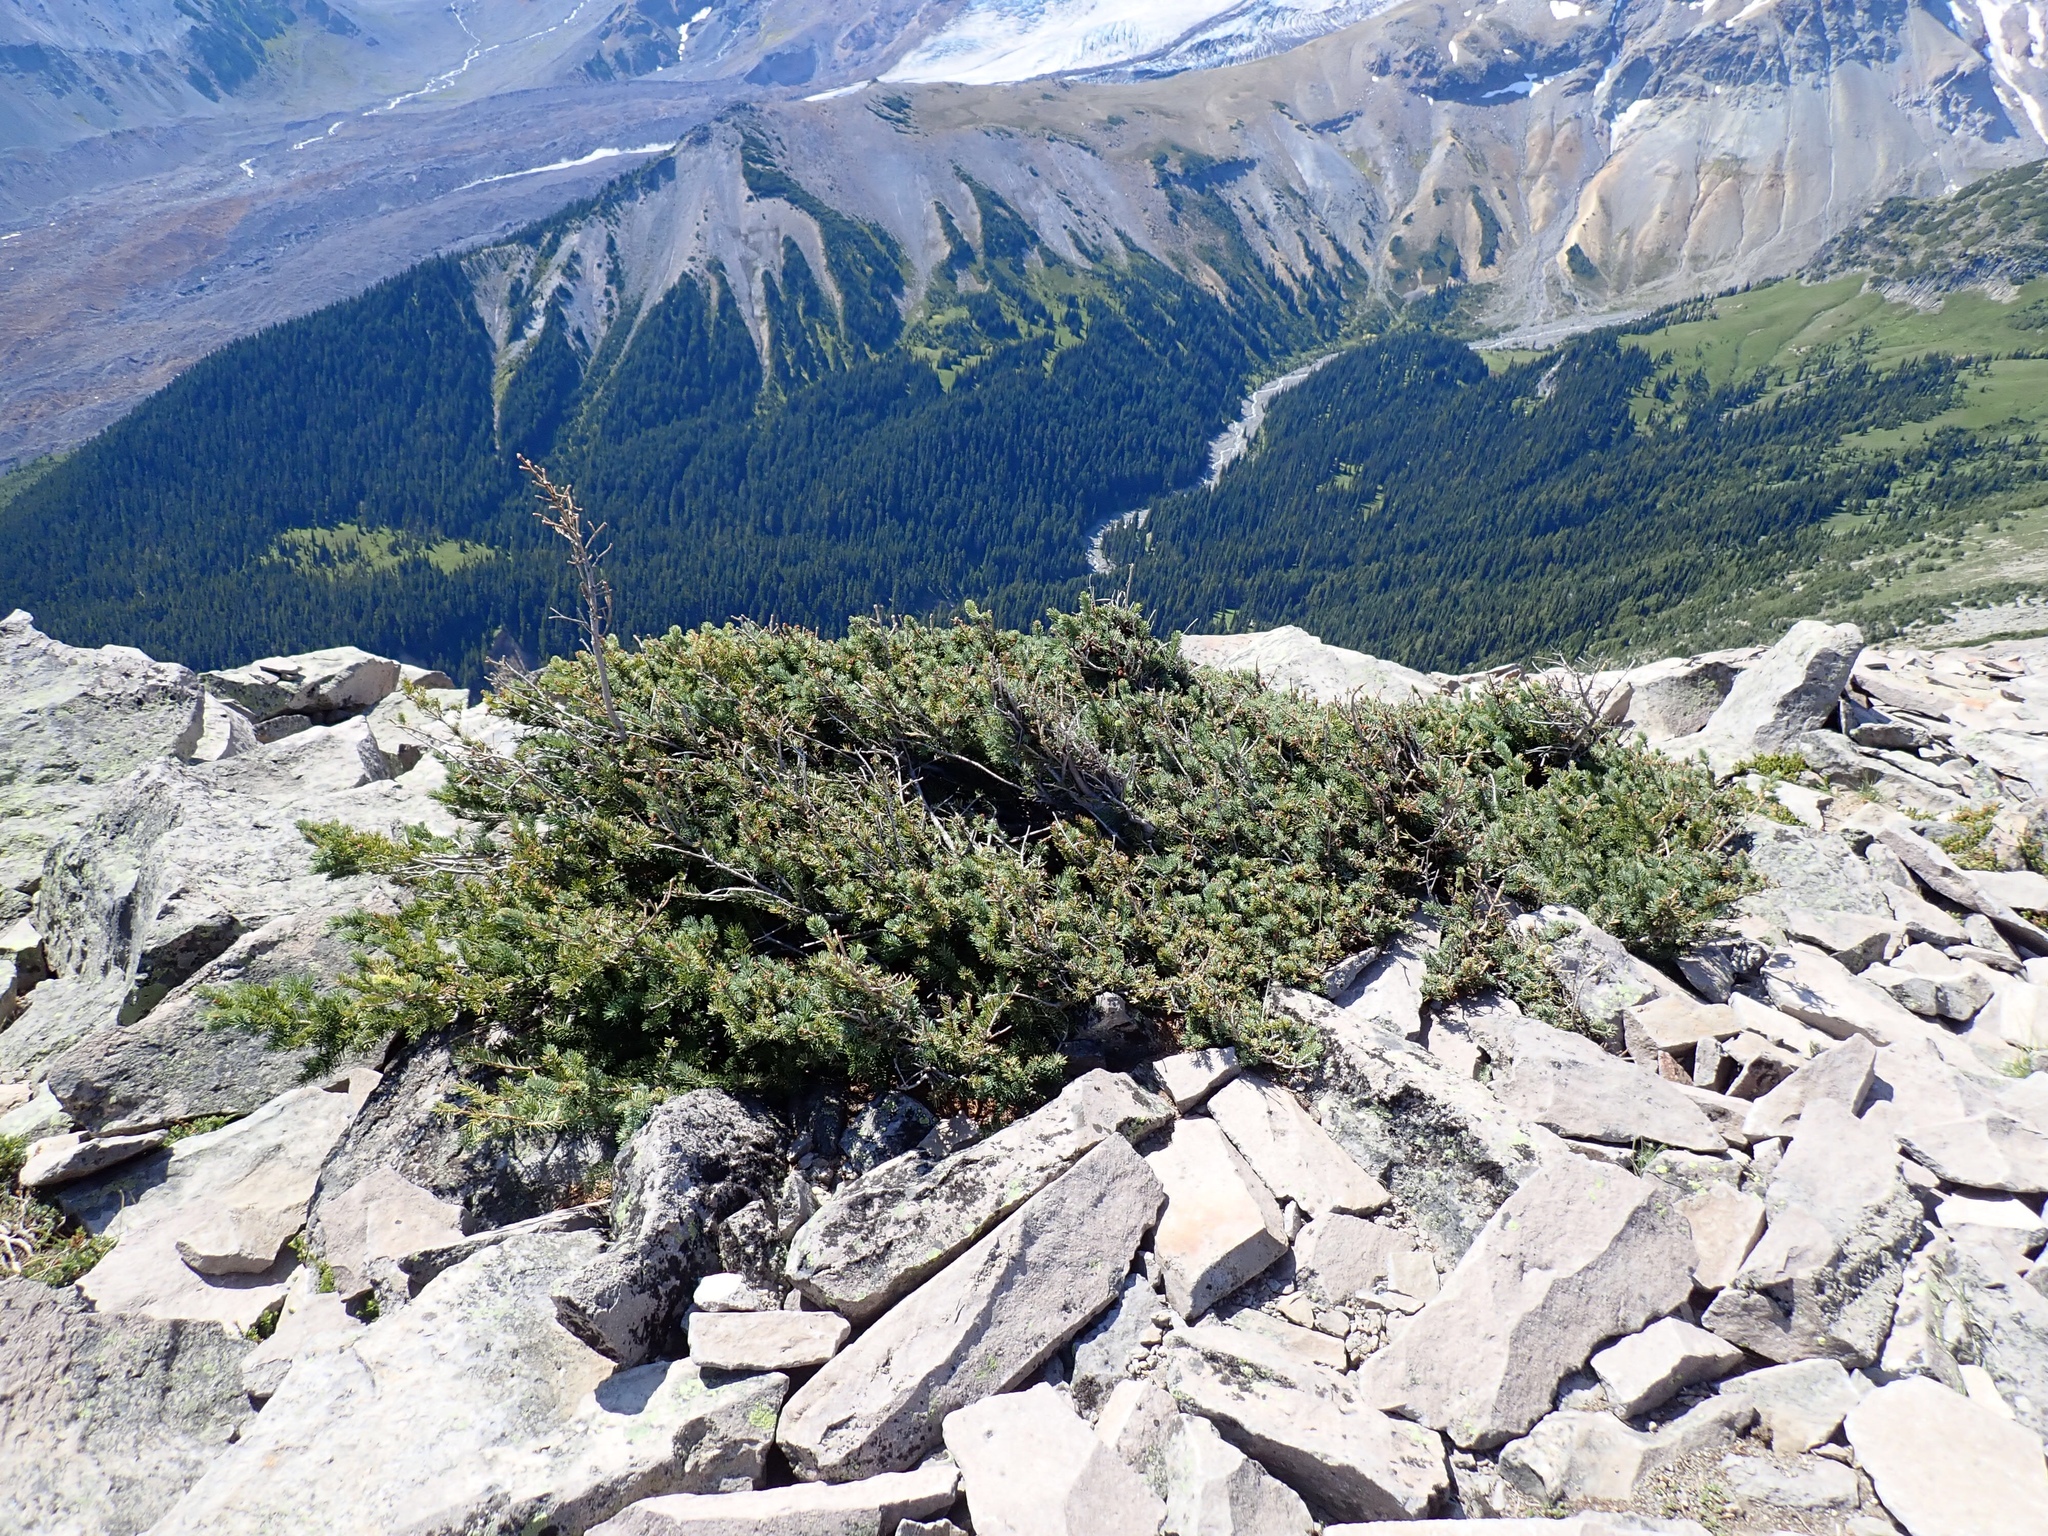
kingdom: Plantae
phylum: Tracheophyta
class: Pinopsida
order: Pinales
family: Pinaceae
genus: Picea
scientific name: Picea engelmannii
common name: Engelmann spruce
